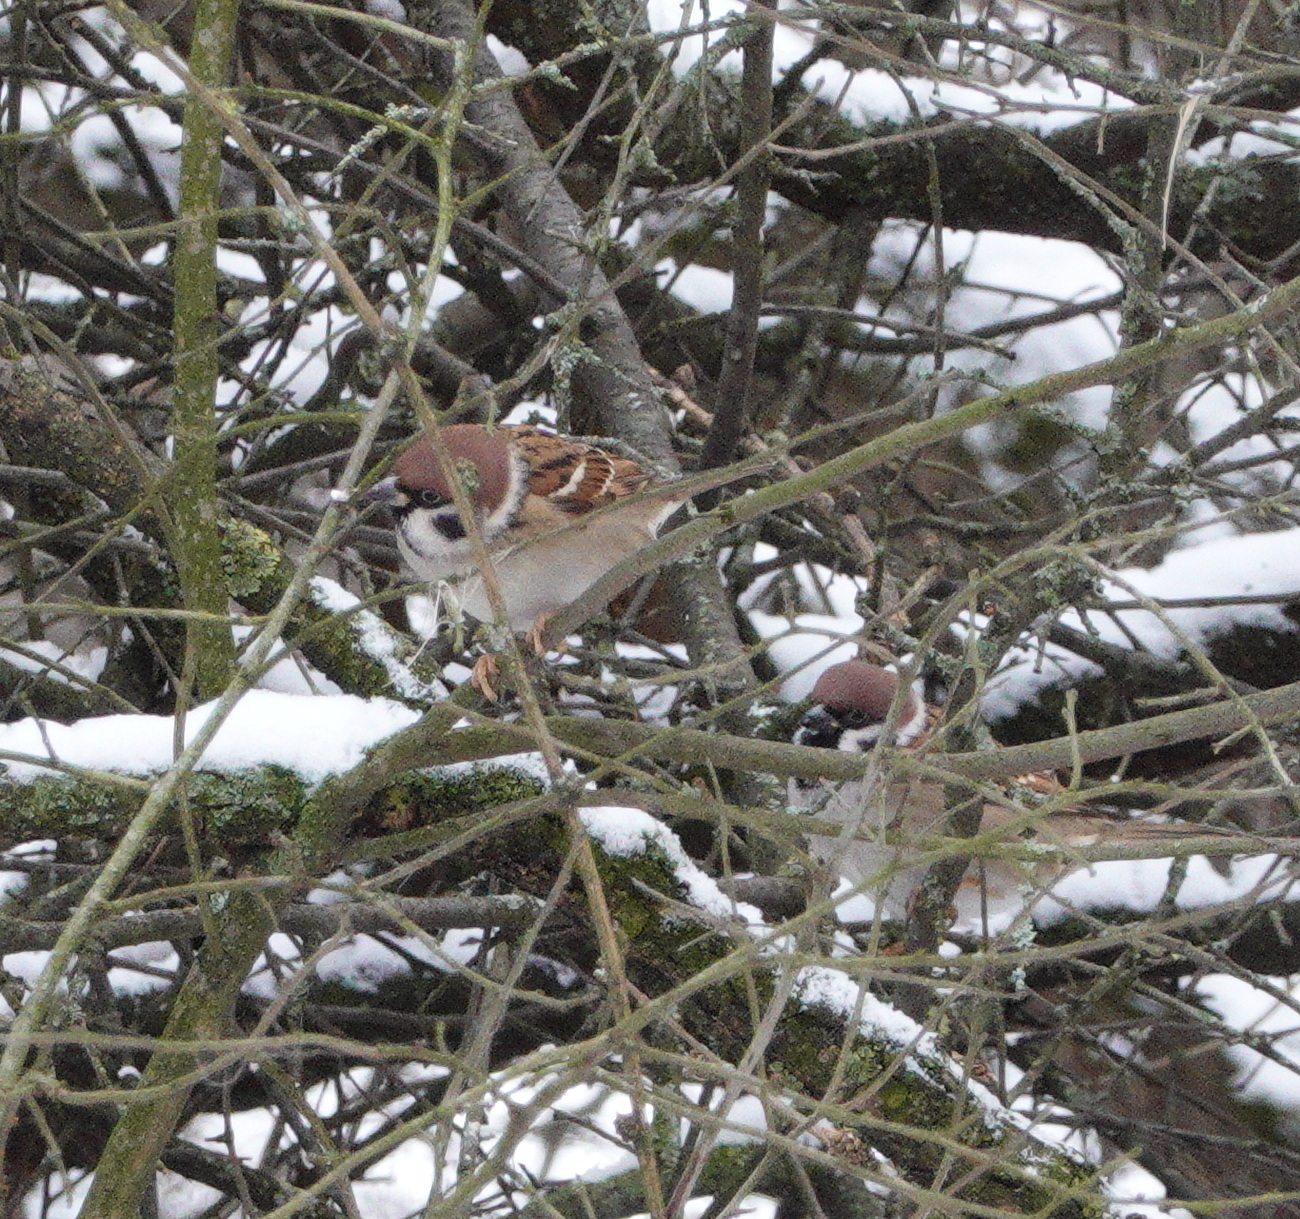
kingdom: Animalia
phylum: Chordata
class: Aves
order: Passeriformes
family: Passeridae
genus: Passer
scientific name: Passer montanus
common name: Eurasian tree sparrow
